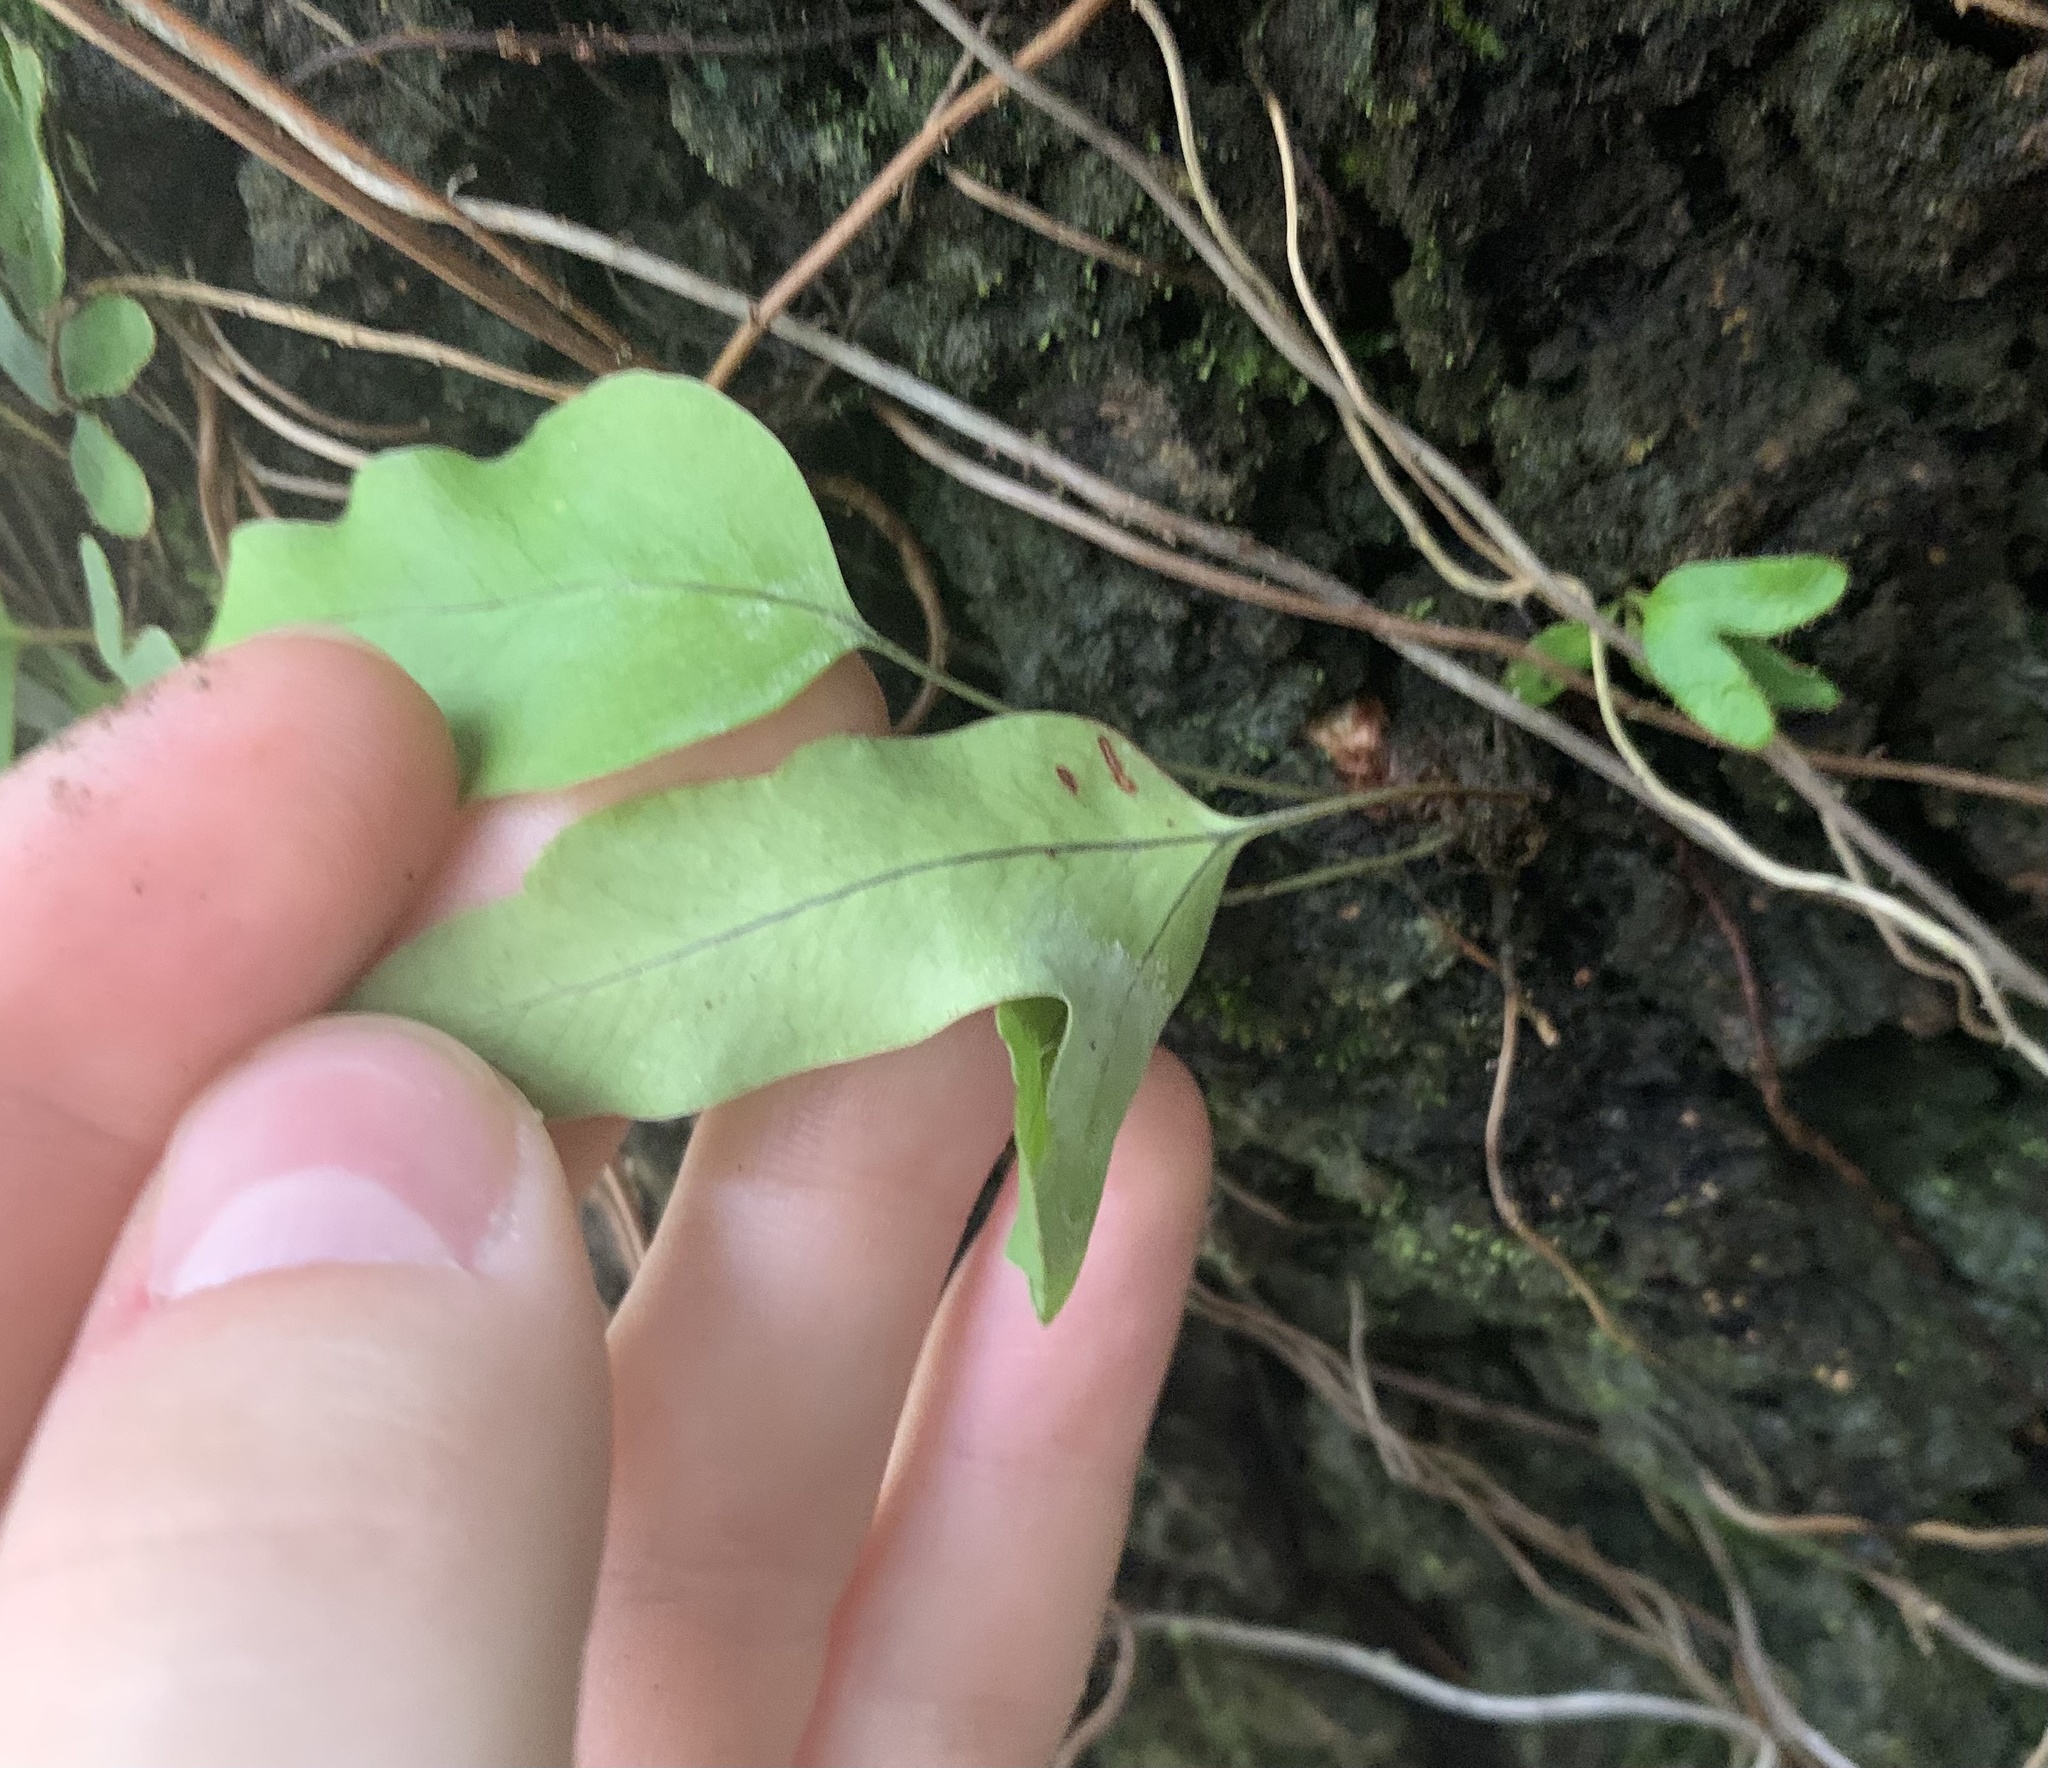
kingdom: Plantae
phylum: Tracheophyta
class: Polypodiopsida
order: Polypodiales
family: Polypodiaceae
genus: Phlebodium
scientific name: Phlebodium aureum
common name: Gold-foot fern
